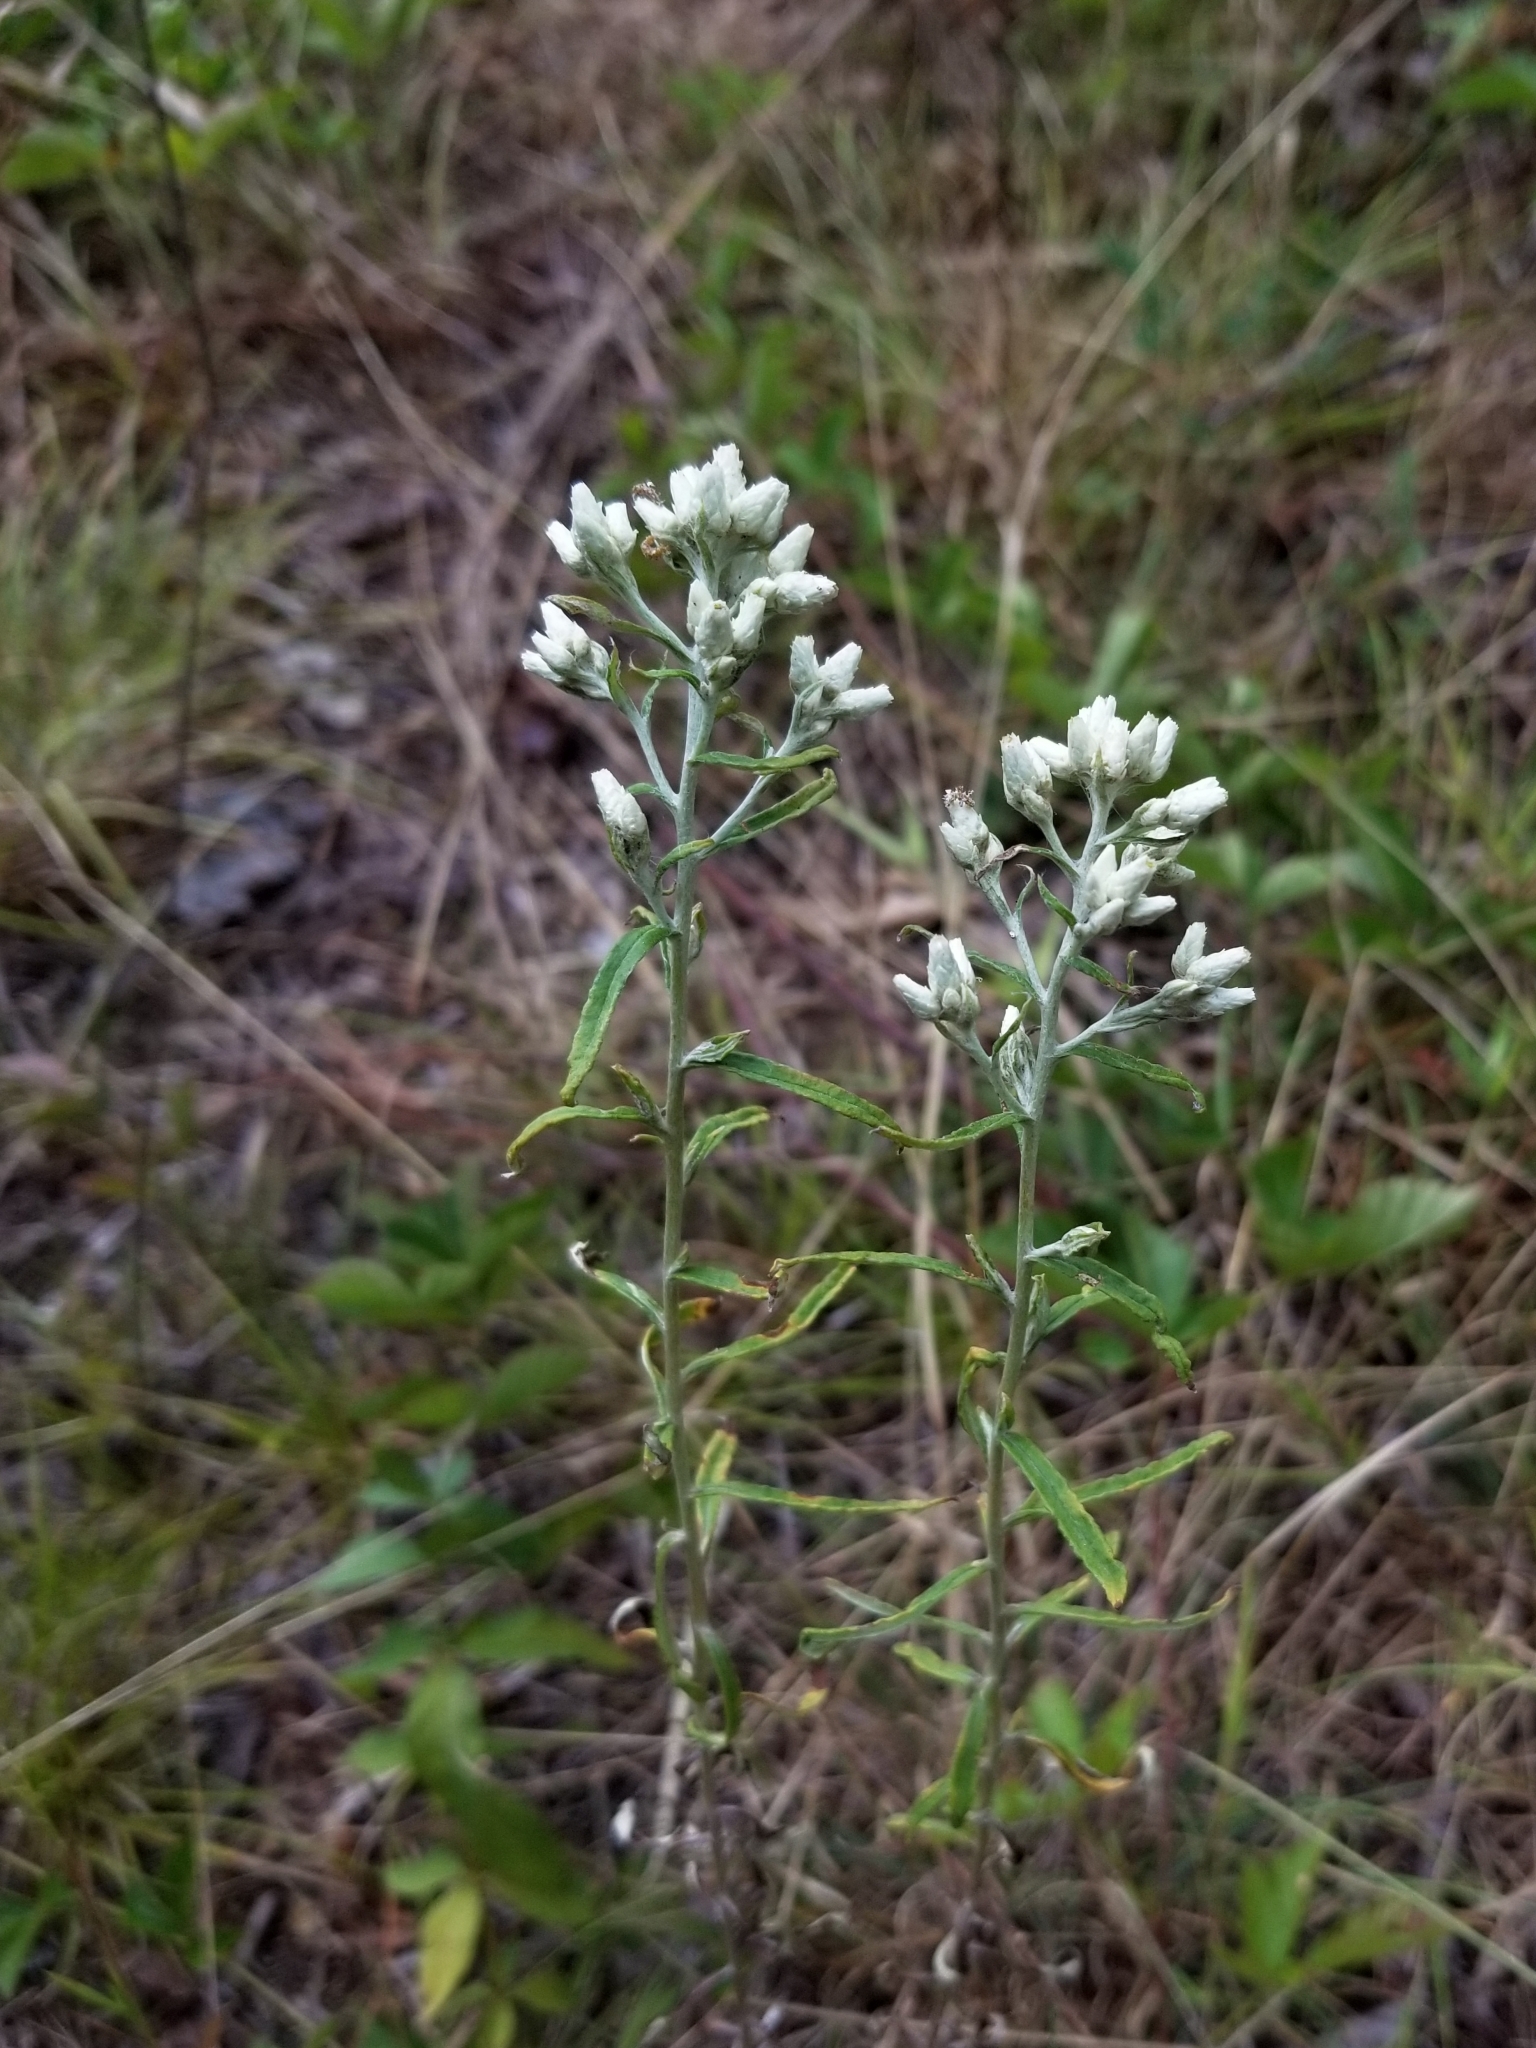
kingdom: Plantae
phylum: Tracheophyta
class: Magnoliopsida
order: Asterales
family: Asteraceae
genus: Pseudognaphalium
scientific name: Pseudognaphalium obtusifolium
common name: Eastern rabbit-tobacco
